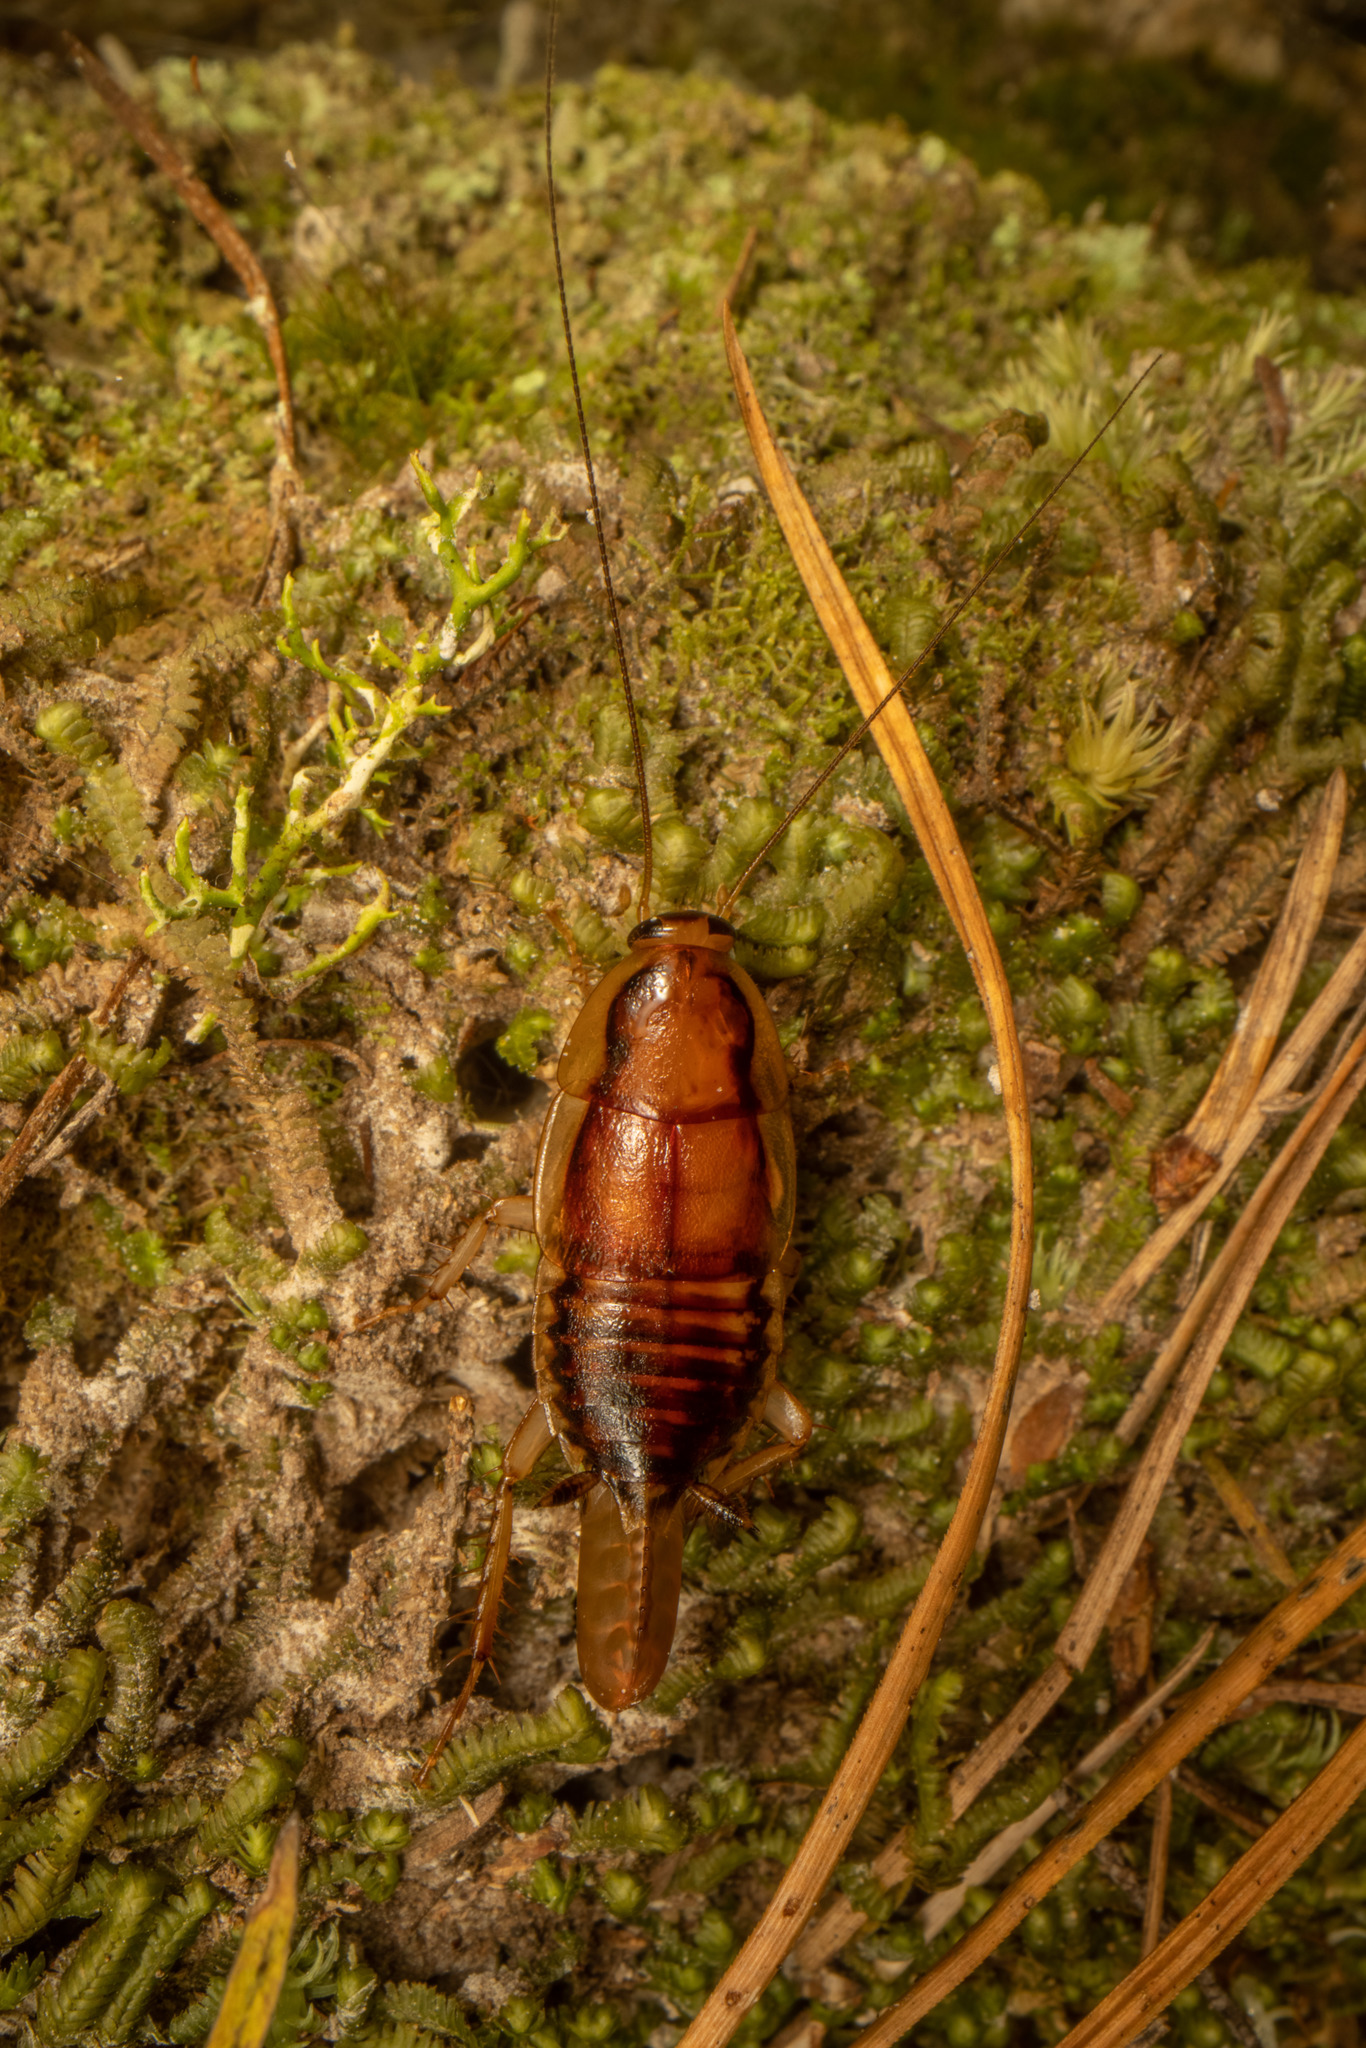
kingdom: Animalia
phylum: Arthropoda
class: Insecta
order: Blattodea
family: Blattidae
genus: Celatoblatta
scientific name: Celatoblatta undulivitta
